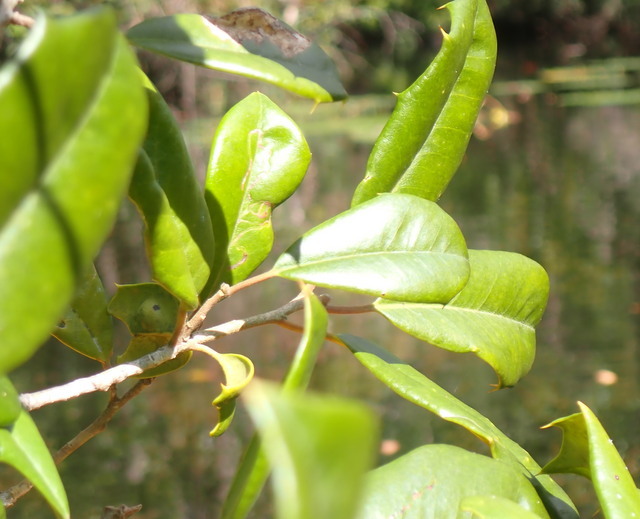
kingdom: Plantae
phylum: Tracheophyta
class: Magnoliopsida
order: Aquifoliales
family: Aquifoliaceae
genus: Ilex
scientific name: Ilex opaca
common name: American holly
